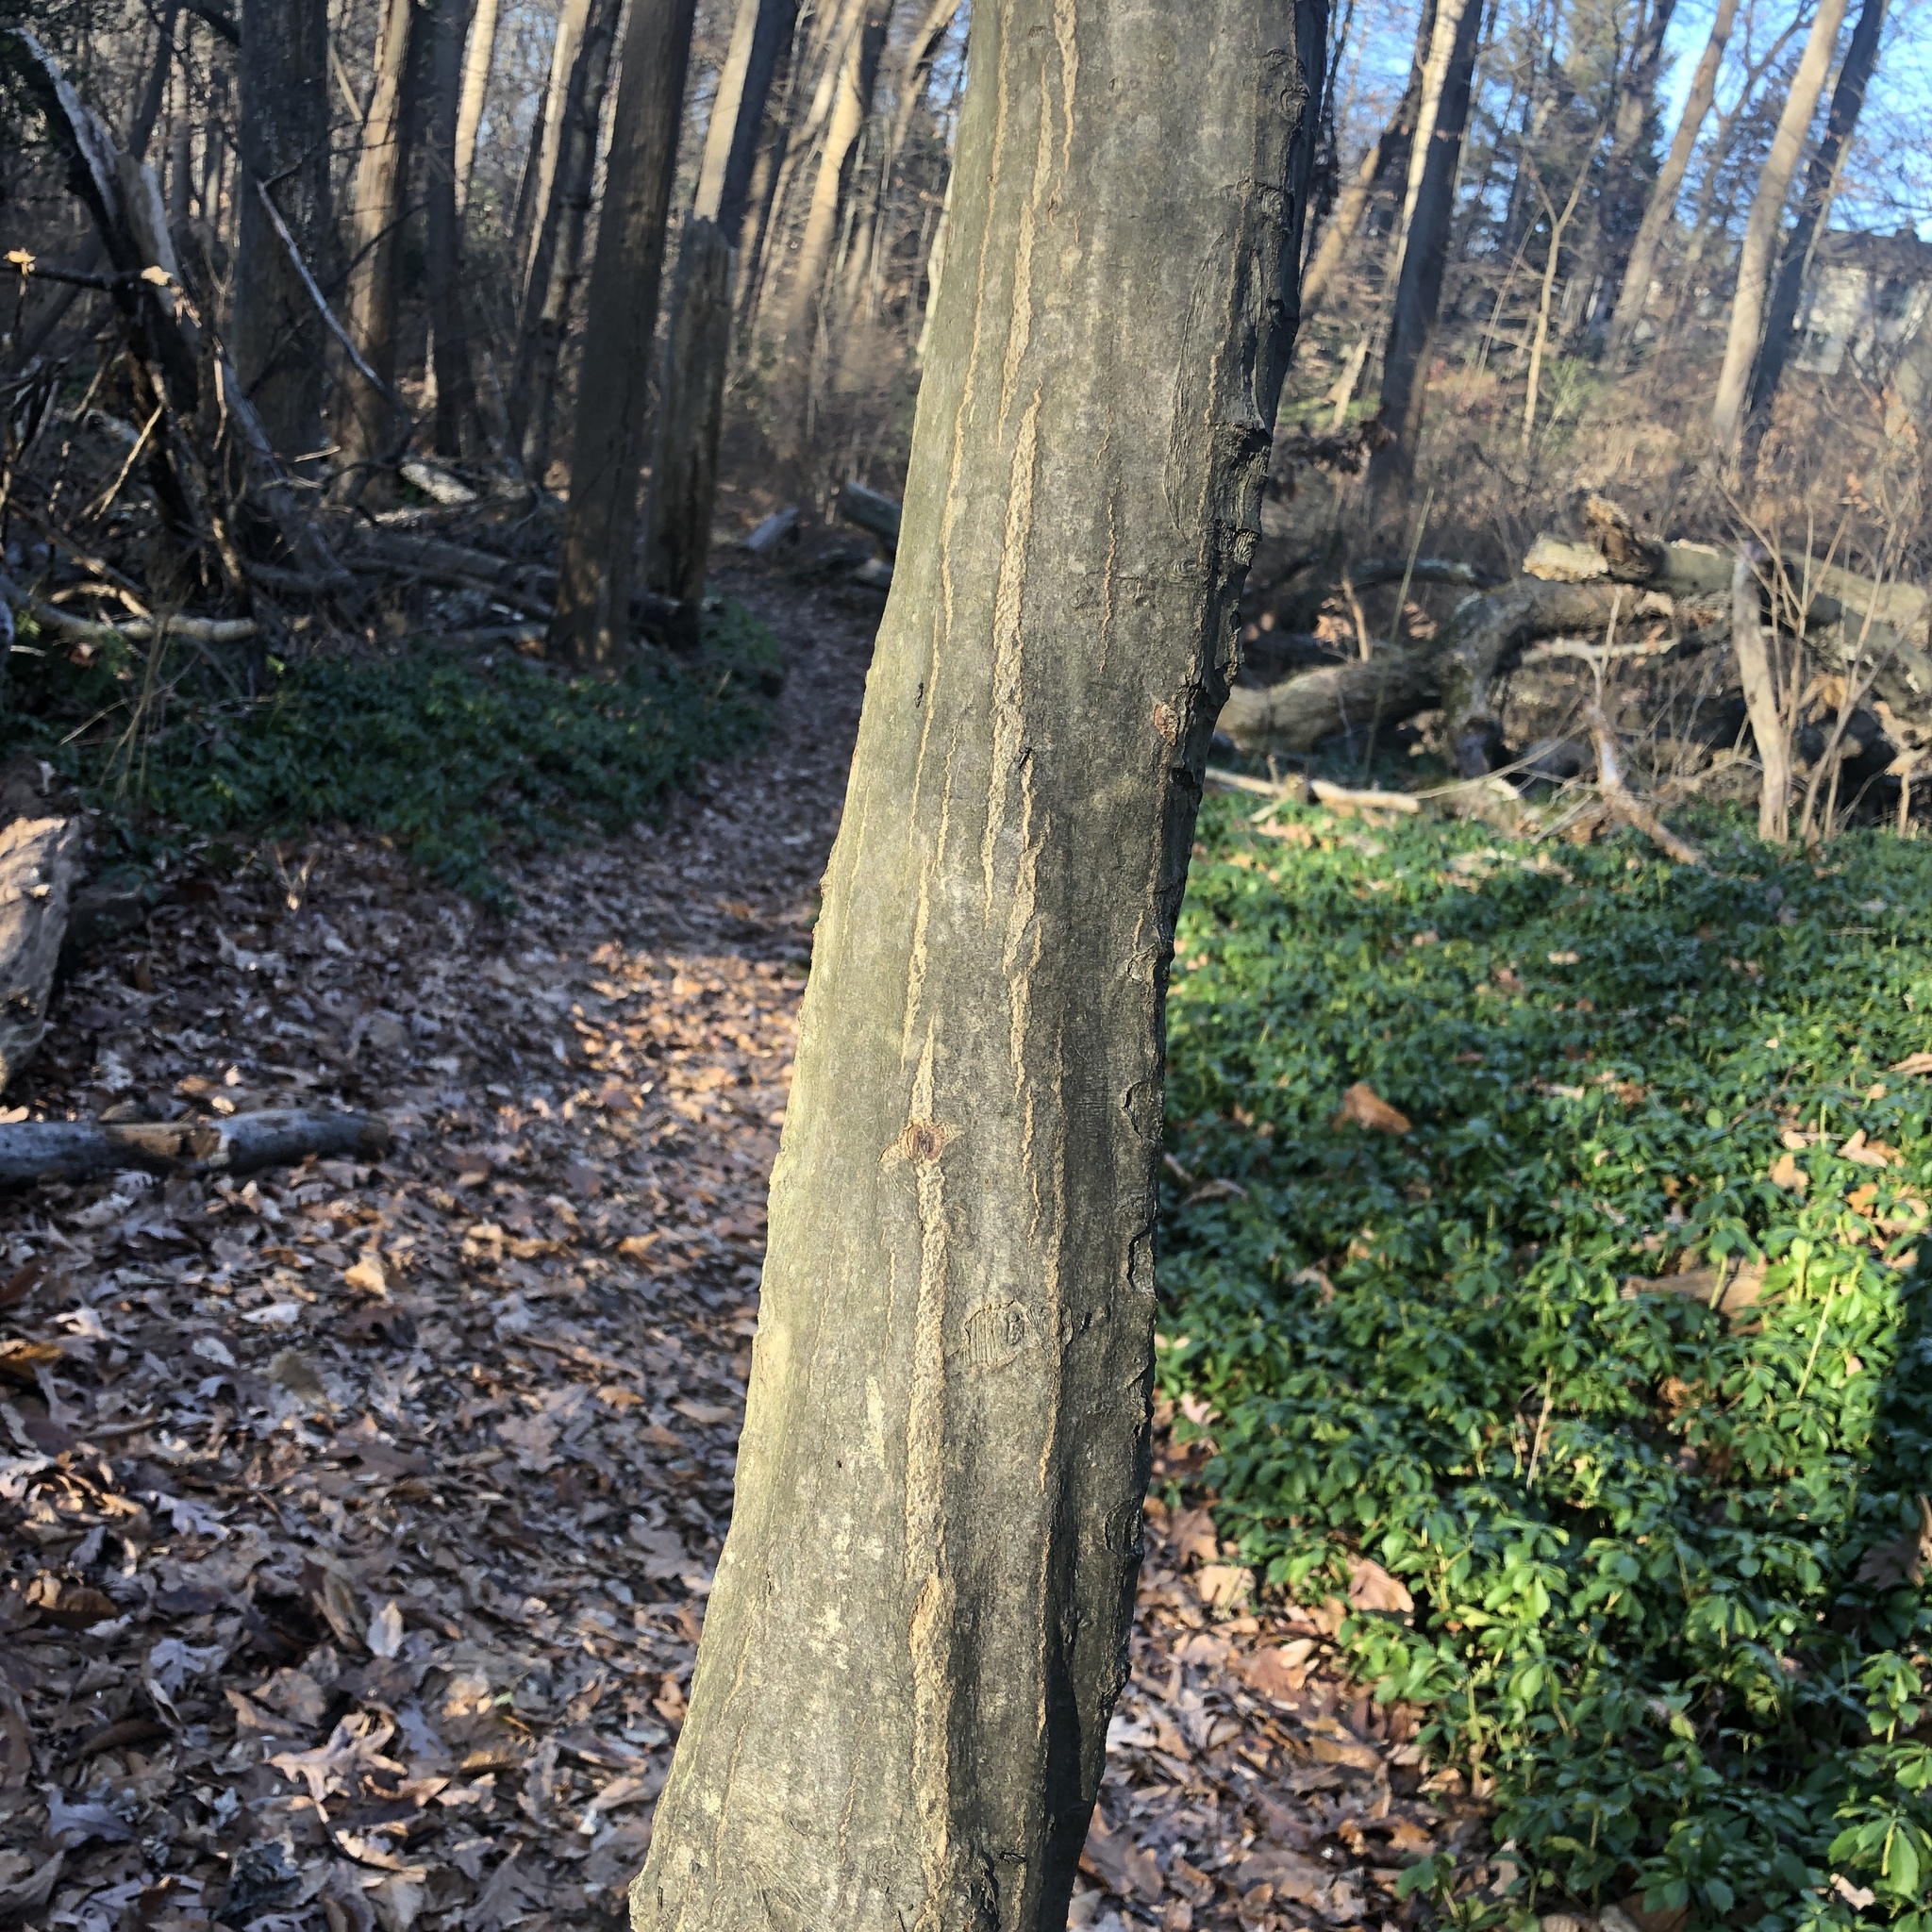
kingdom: Plantae
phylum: Tracheophyta
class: Magnoliopsida
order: Fagales
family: Betulaceae
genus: Carpinus
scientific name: Carpinus caroliniana
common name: American hornbeam
